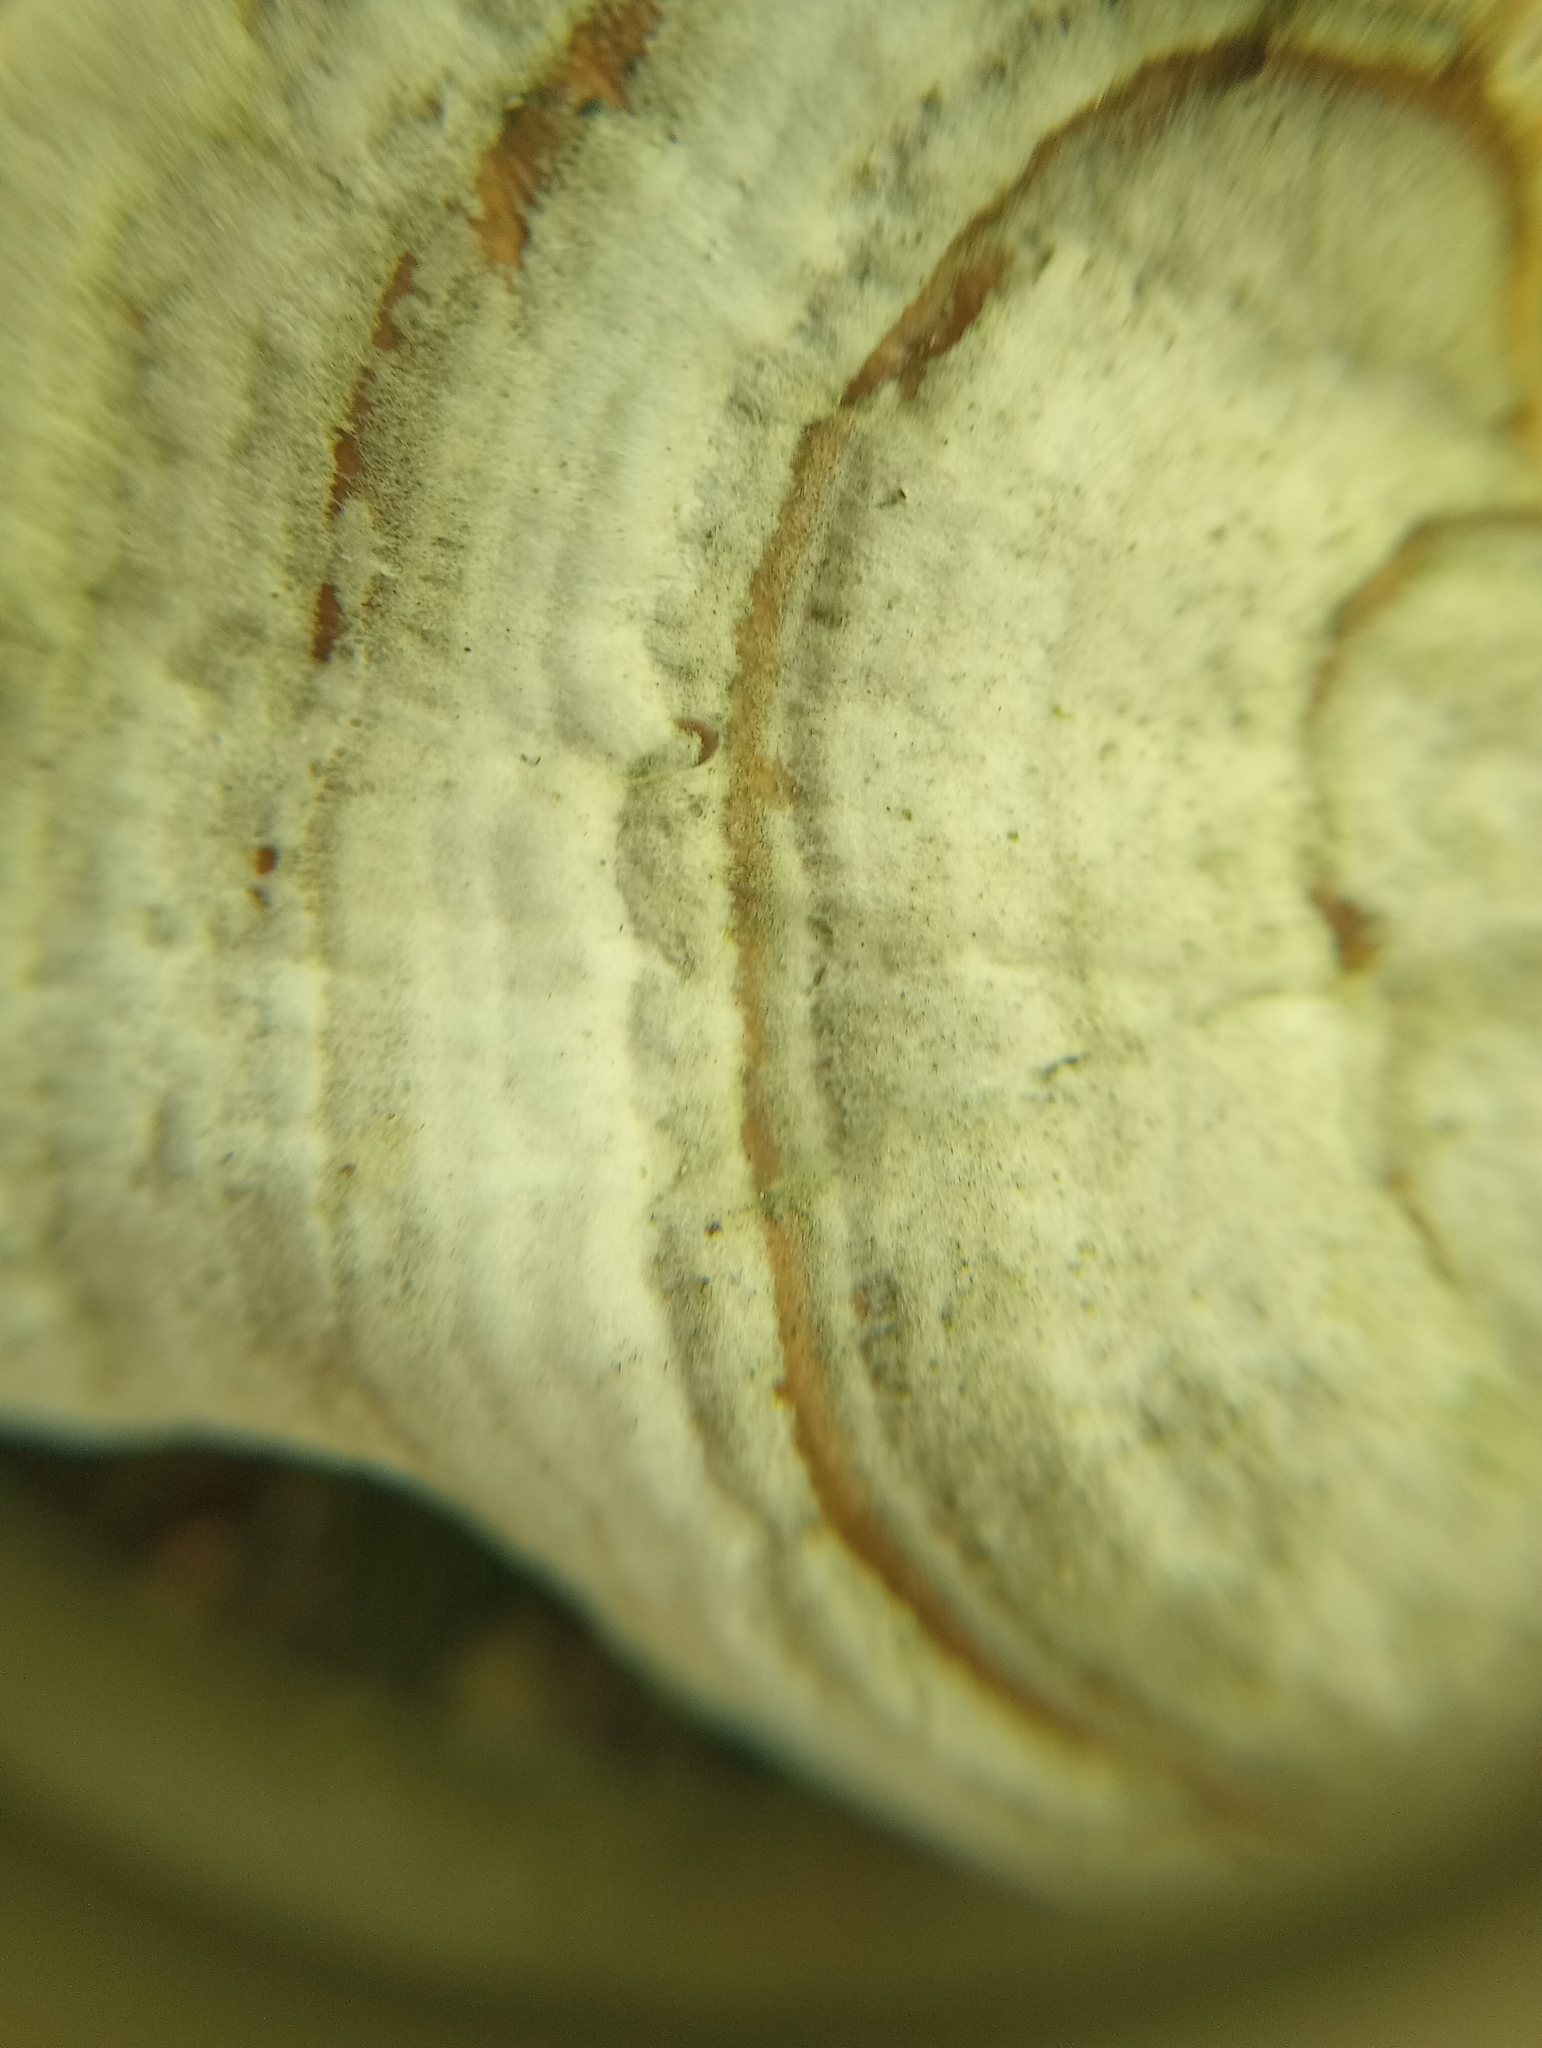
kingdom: Fungi
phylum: Basidiomycota
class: Agaricomycetes
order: Russulales
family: Stereaceae
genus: Stereum
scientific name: Stereum lobatum
